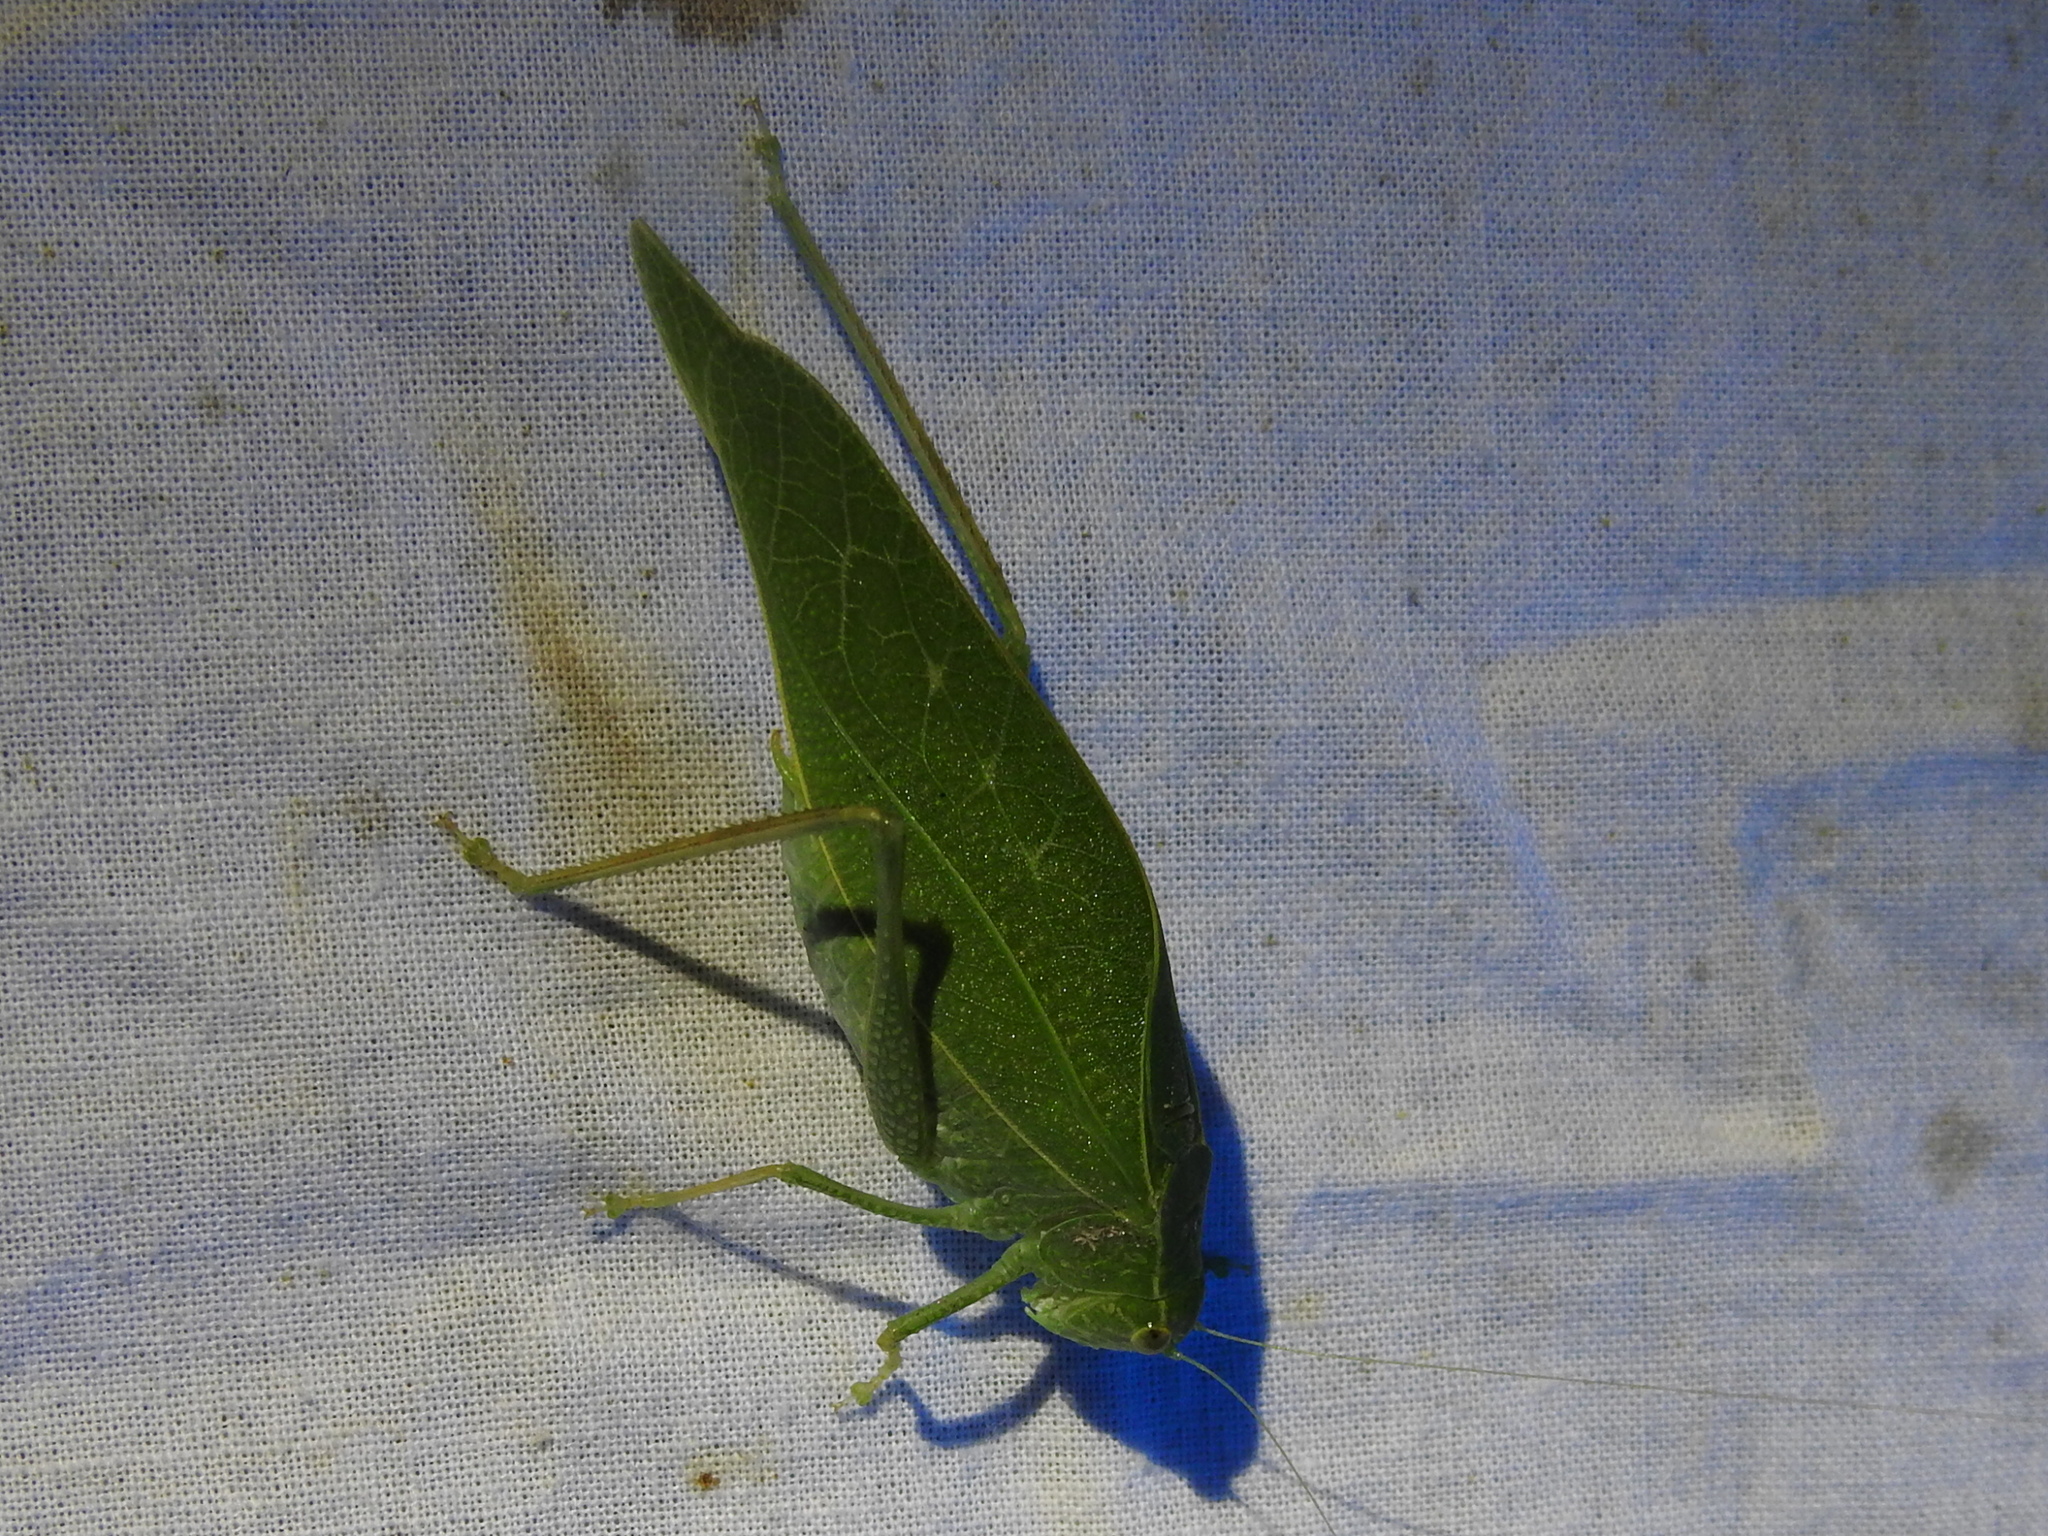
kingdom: Animalia
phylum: Arthropoda
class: Insecta
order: Orthoptera
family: Tettigoniidae
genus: Microcentrum
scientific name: Microcentrum rhombifolium
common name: Broad-winged katydid
